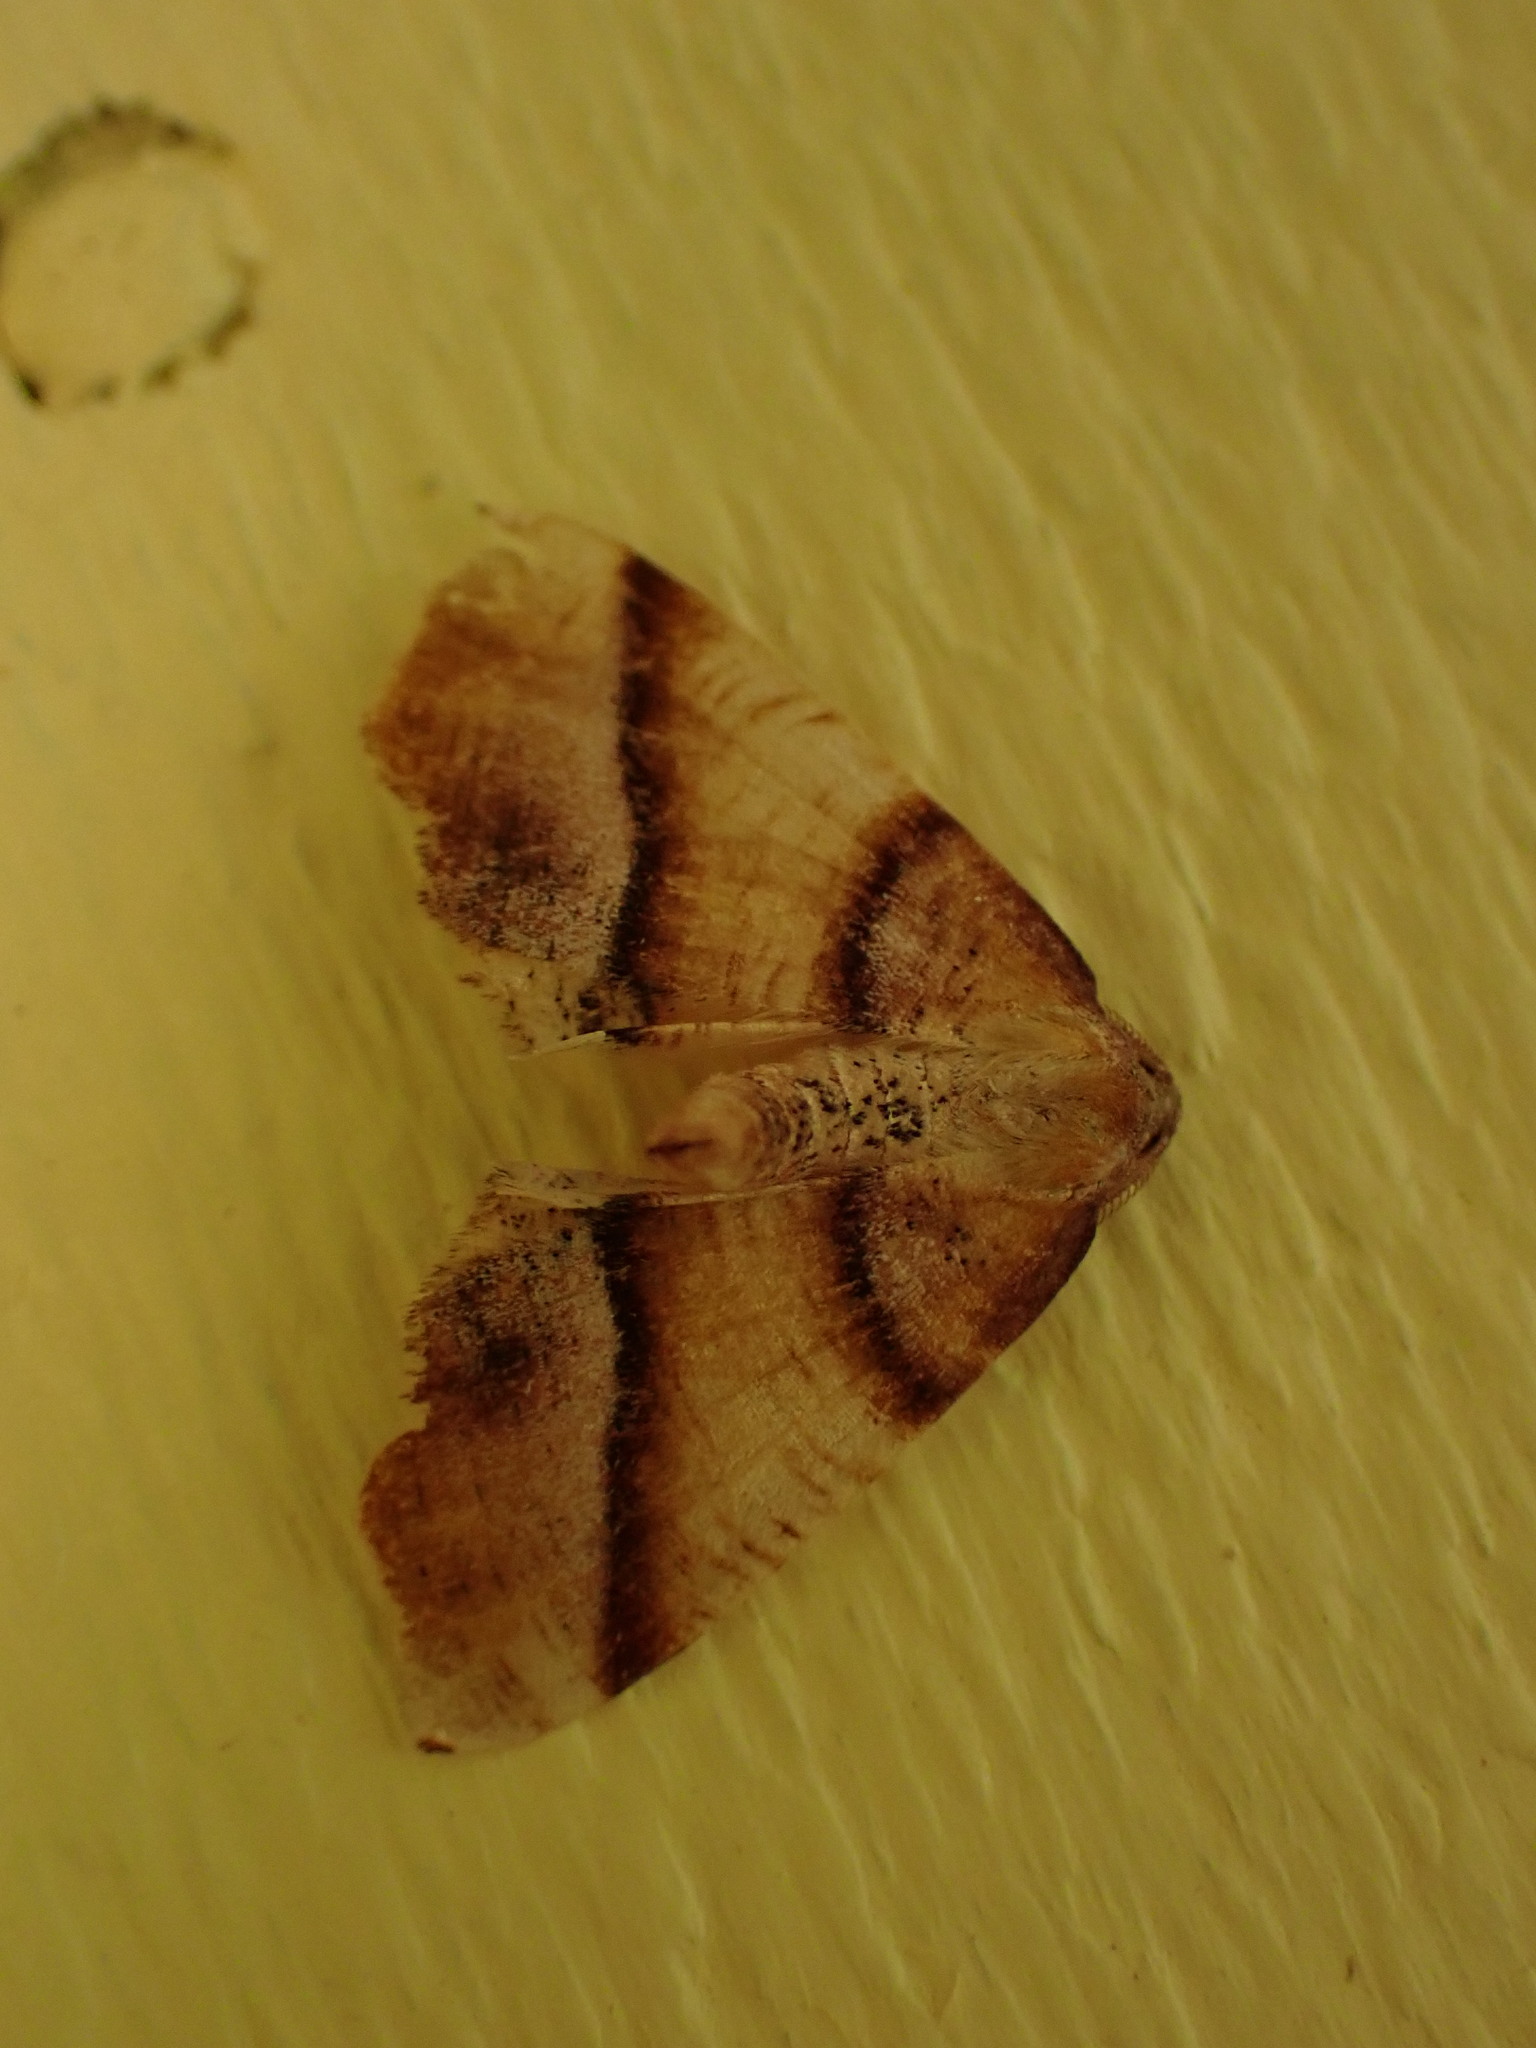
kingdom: Animalia
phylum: Arthropoda
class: Insecta
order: Lepidoptera
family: Geometridae
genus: Plagodis
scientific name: Plagodis phlogosaria
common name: Straight-lined plagodis
